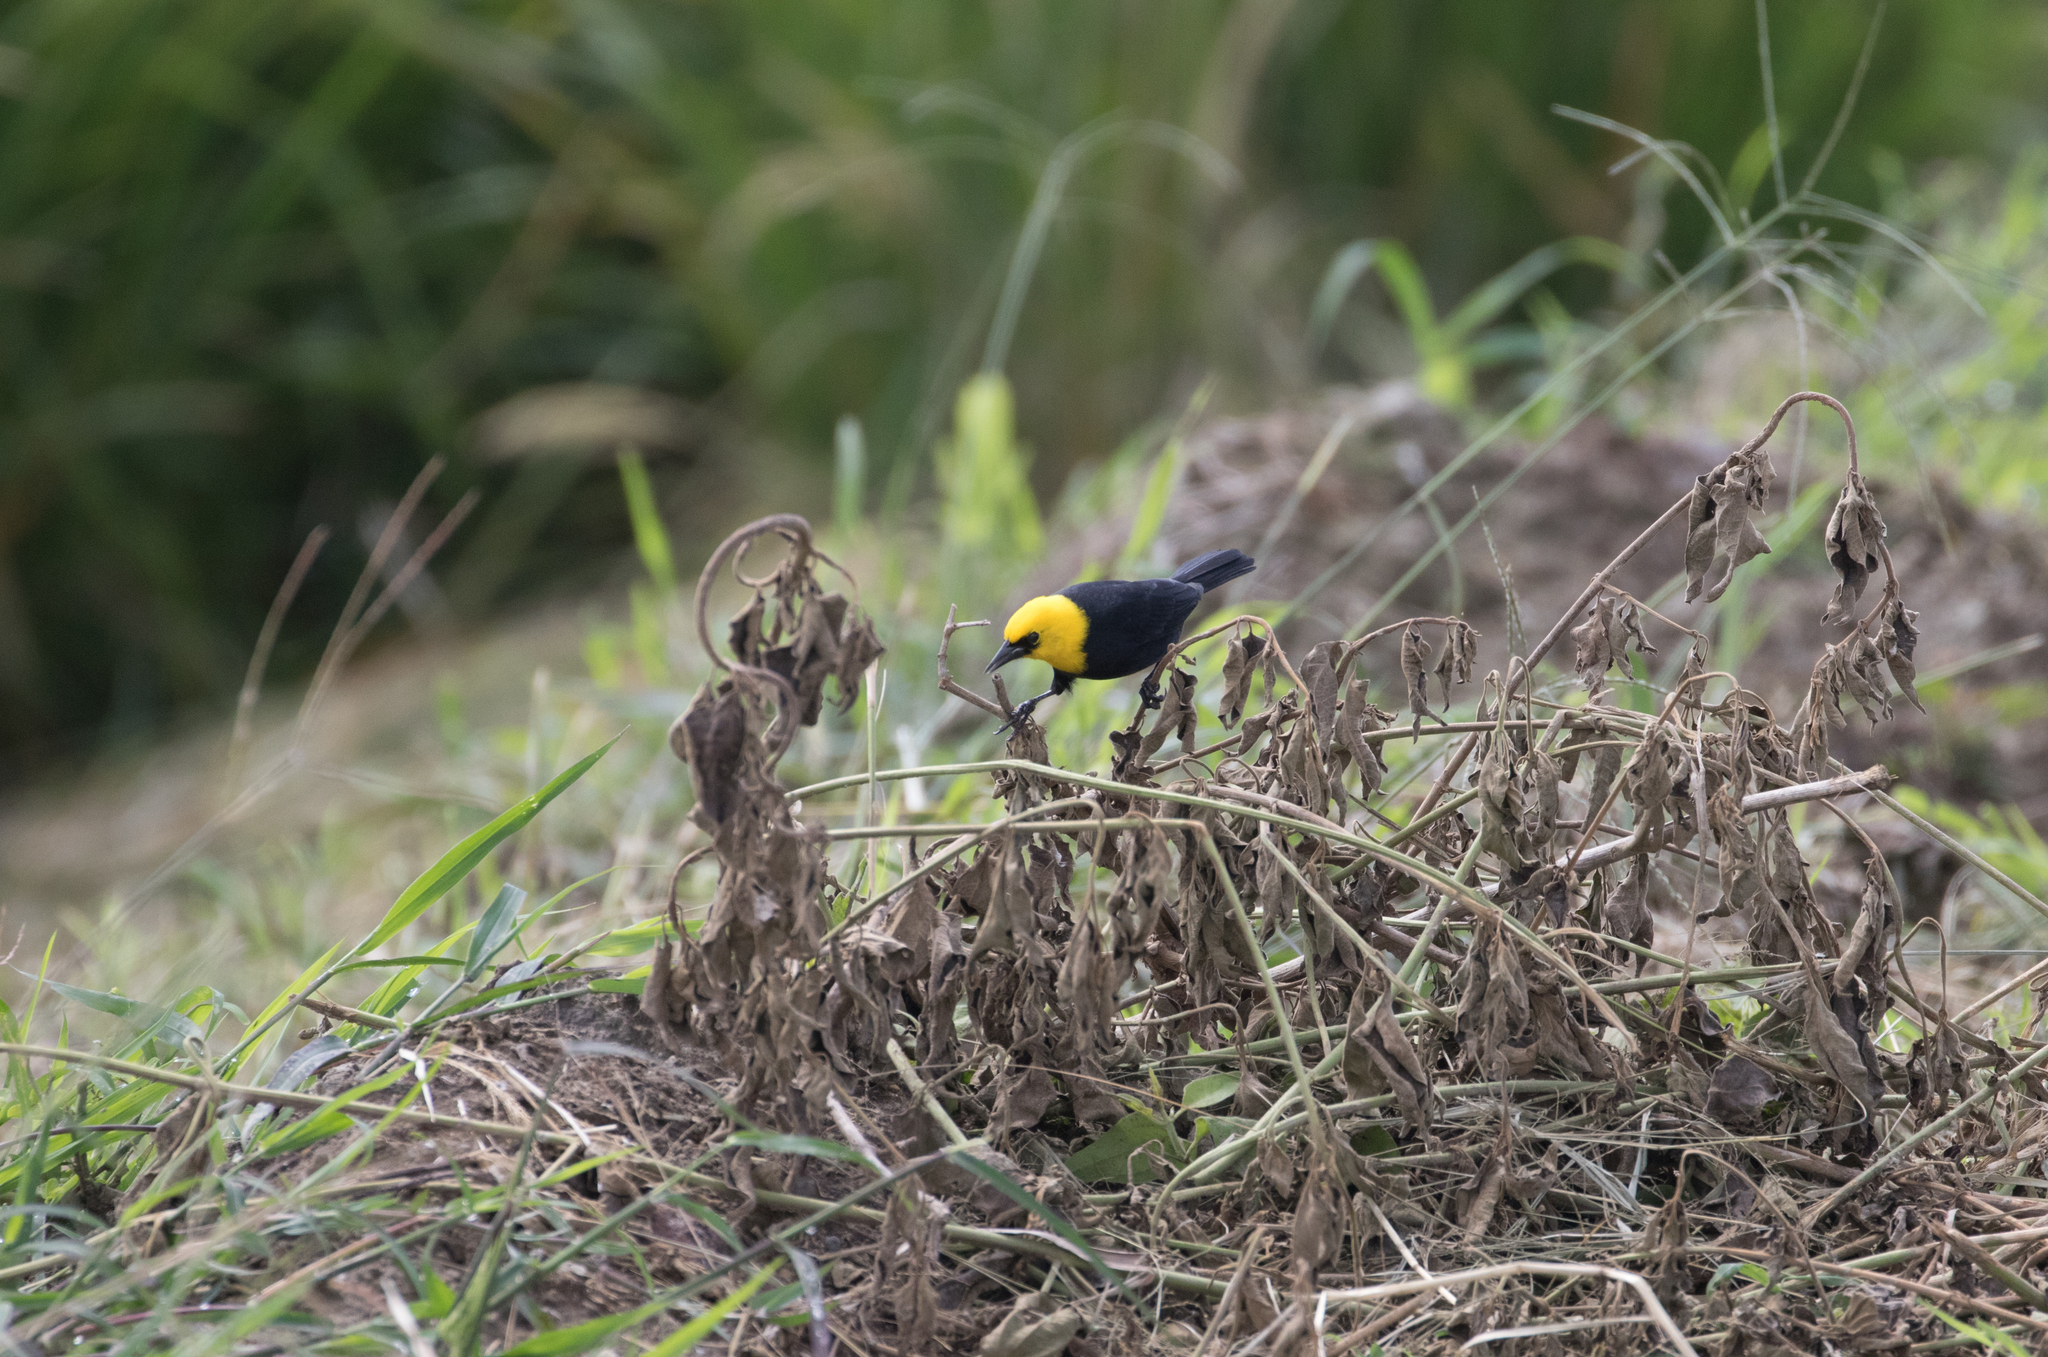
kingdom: Animalia
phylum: Chordata
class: Aves
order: Passeriformes
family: Icteridae
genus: Chrysomus
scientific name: Chrysomus icterocephalus
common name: Yellow-hooded blackbird
